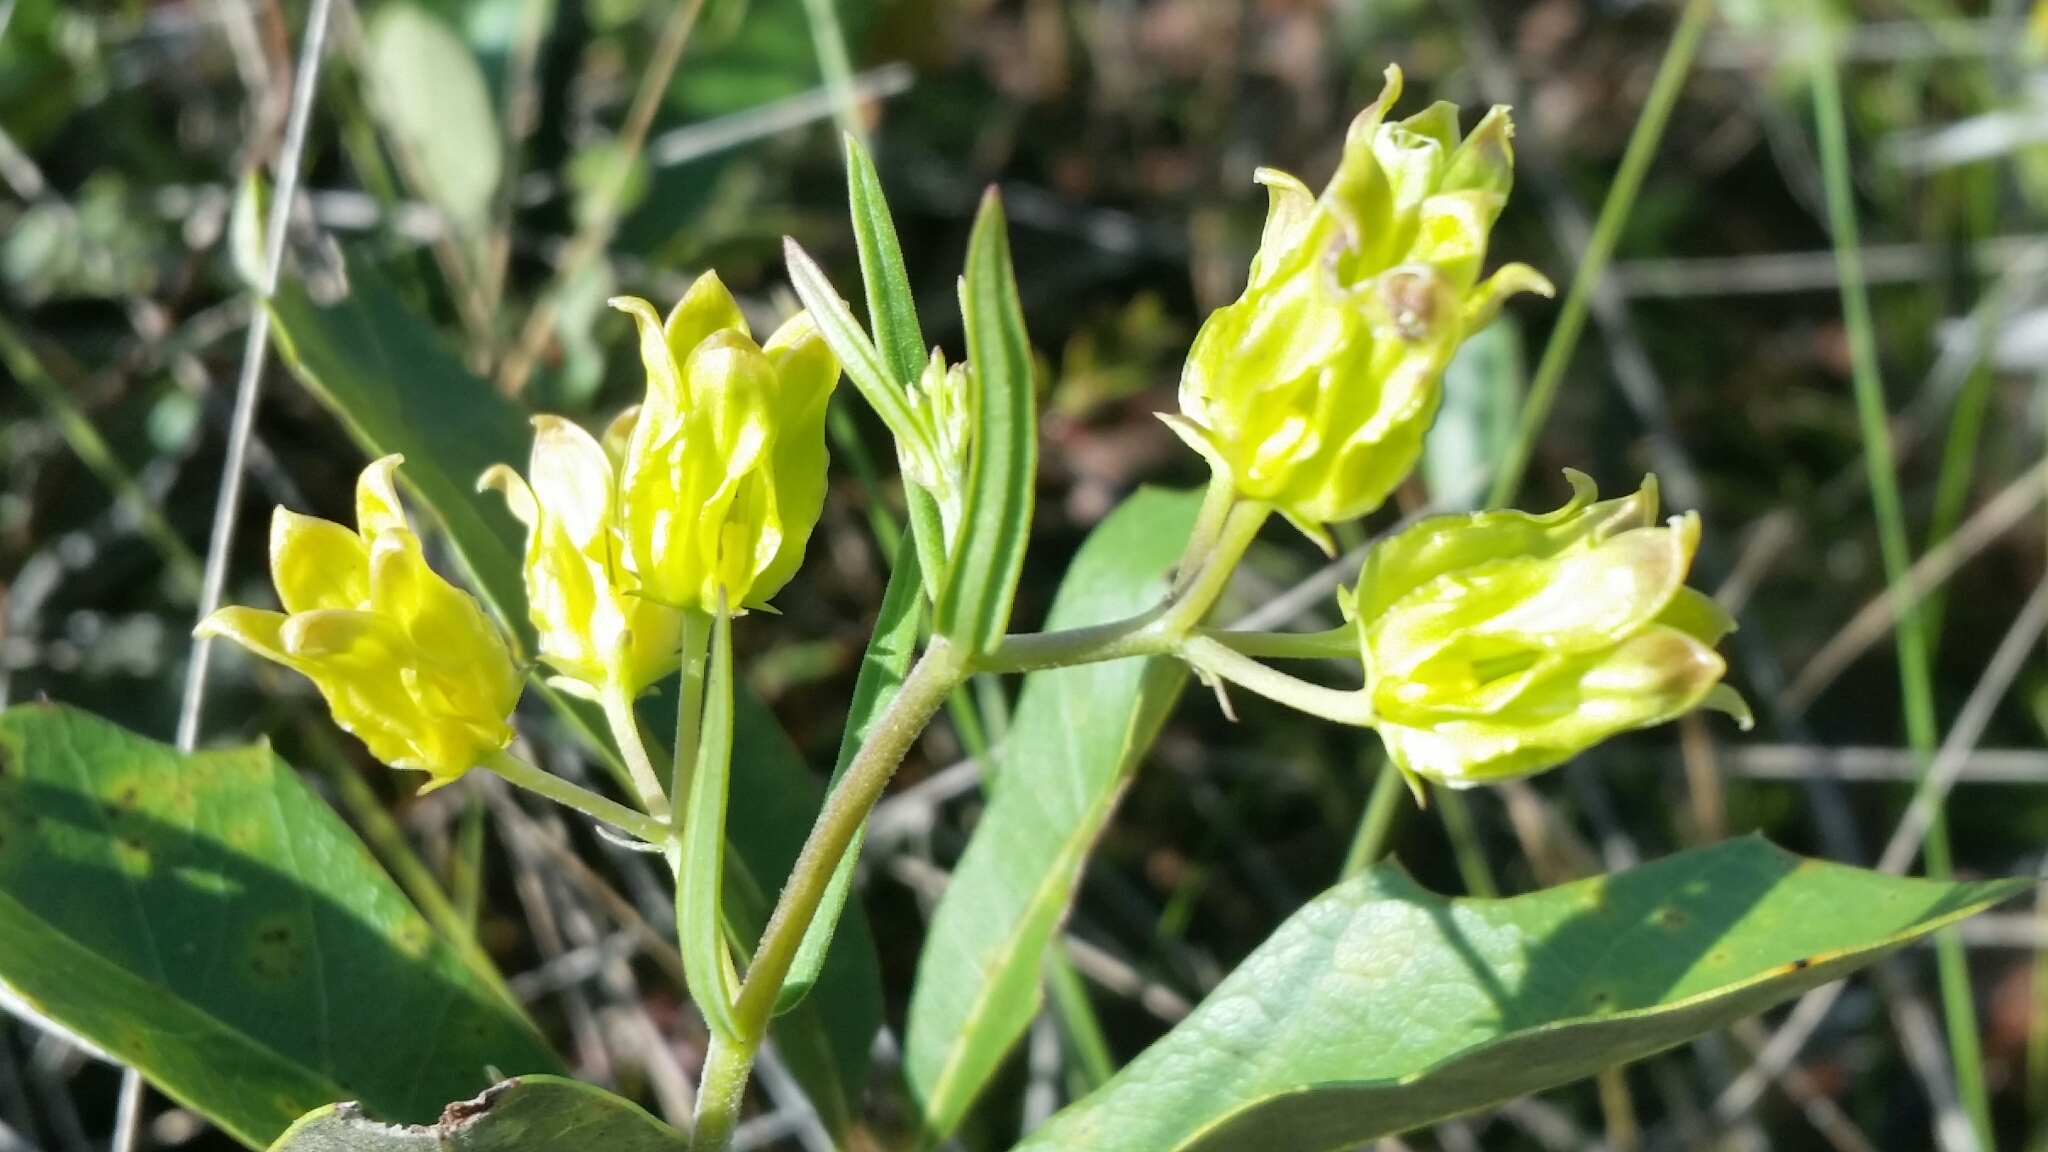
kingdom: Plantae
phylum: Tracheophyta
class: Magnoliopsida
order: Gentianales
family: Apocynaceae
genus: Asclepias
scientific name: Asclepias pedicellata
